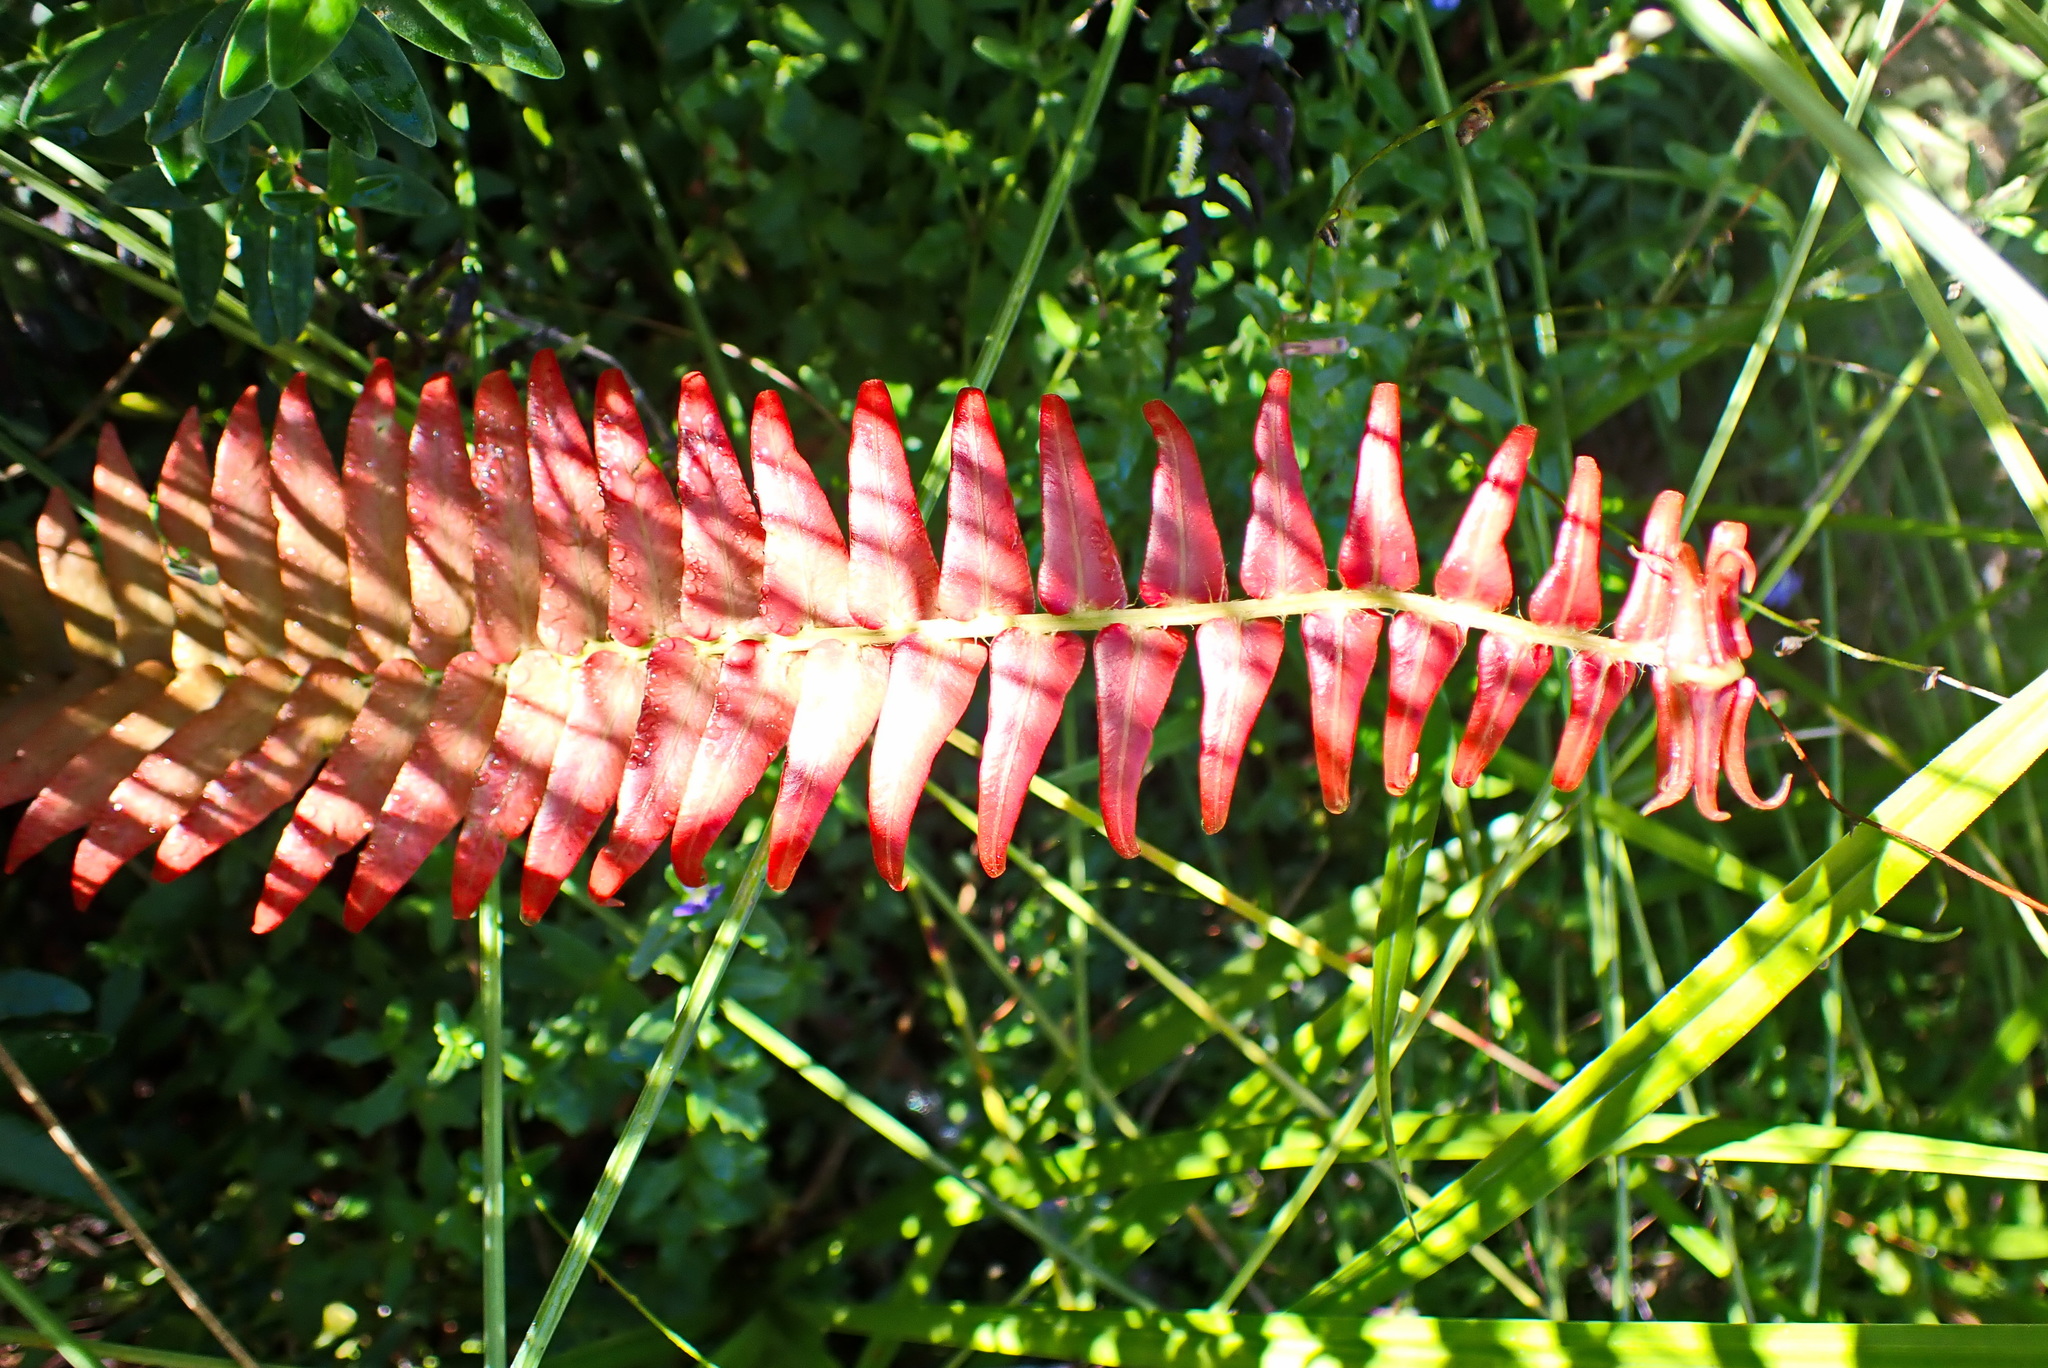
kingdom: Plantae
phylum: Tracheophyta
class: Polypodiopsida
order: Polypodiales
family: Blechnaceae
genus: Blechnum
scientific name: Blechnum punctulatum
